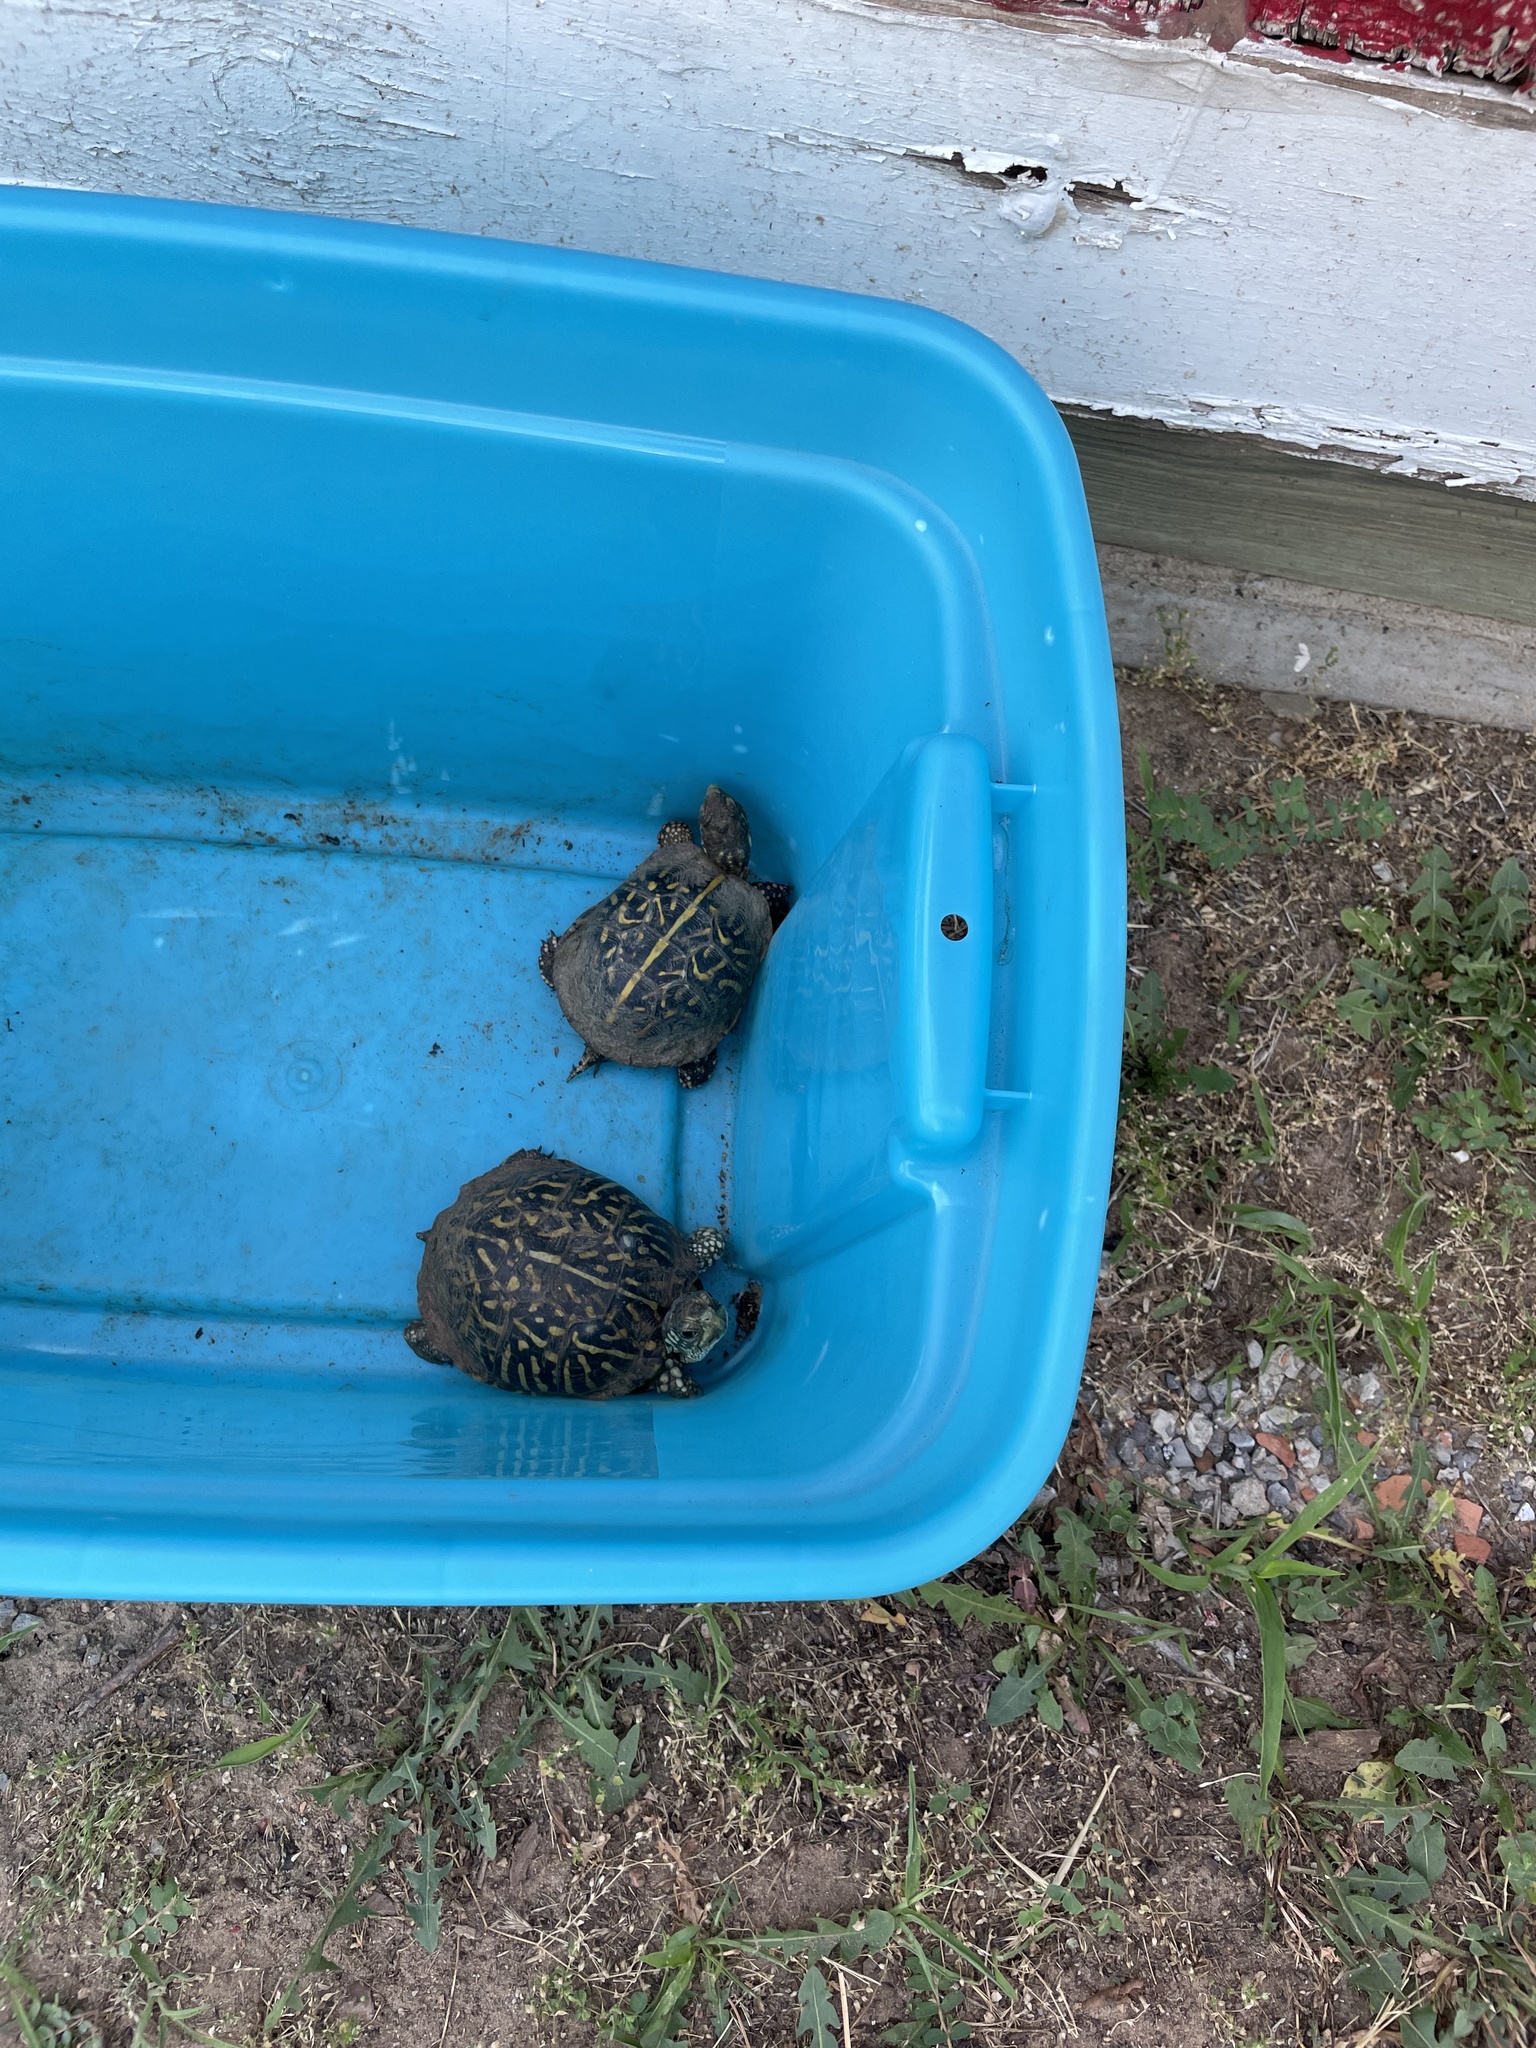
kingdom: Animalia
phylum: Chordata
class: Testudines
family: Emydidae
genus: Terrapene
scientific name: Terrapene ornata
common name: Western box turtle
